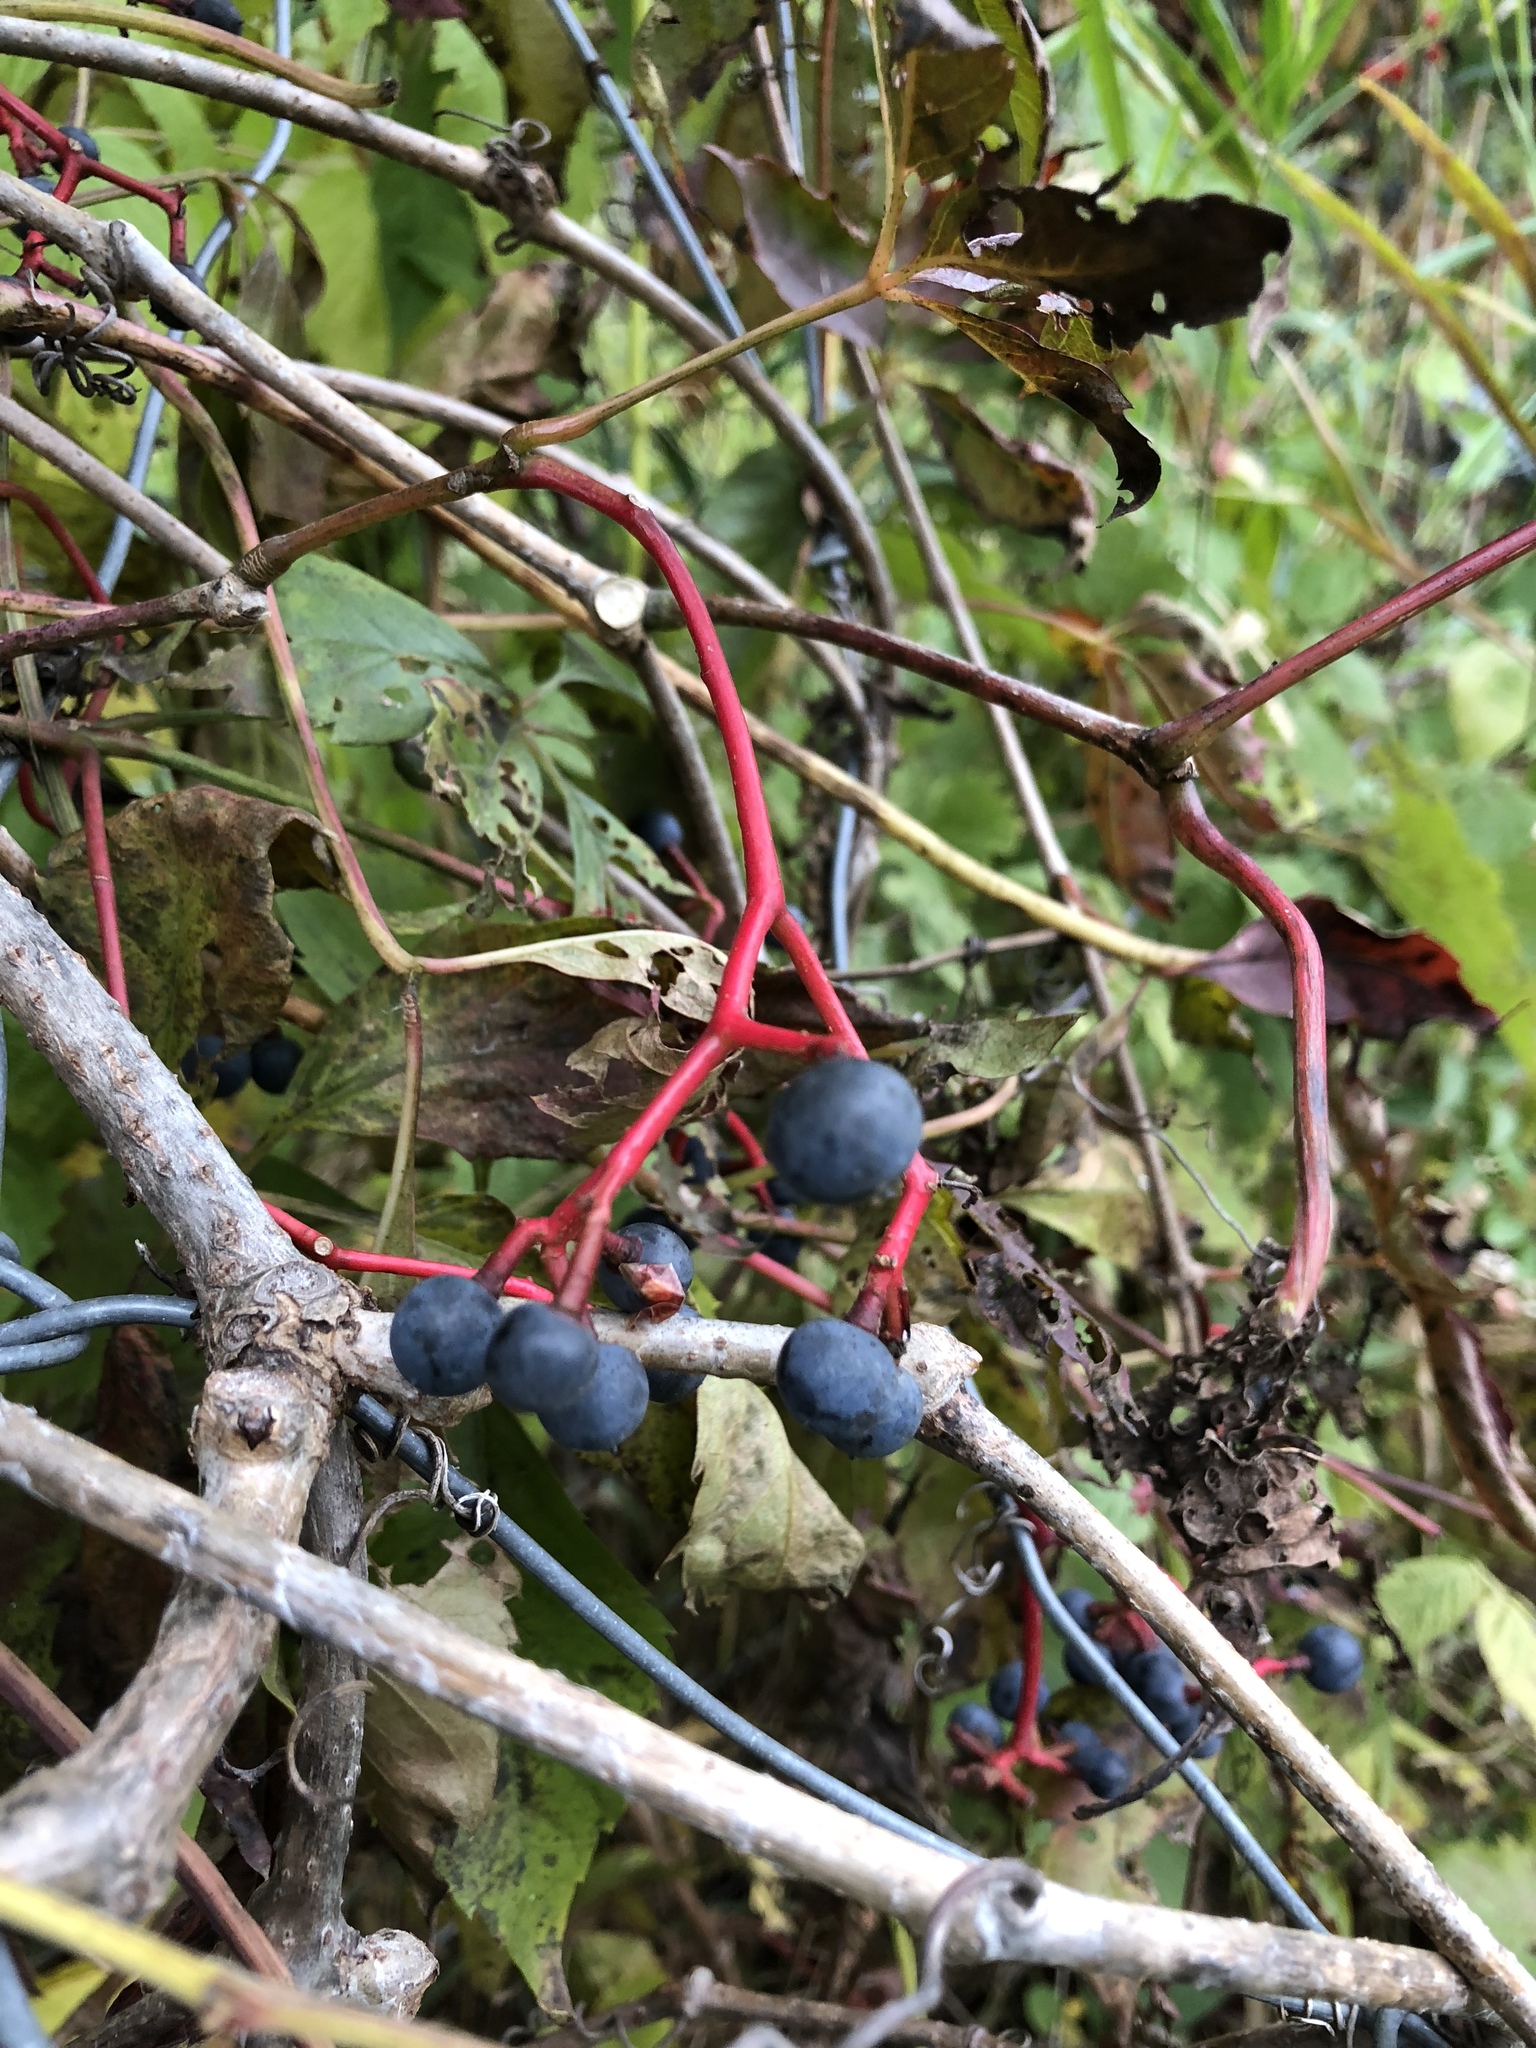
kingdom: Plantae
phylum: Tracheophyta
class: Magnoliopsida
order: Vitales
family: Vitaceae
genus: Parthenocissus
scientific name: Parthenocissus quinquefolia
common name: Virginia-creeper
